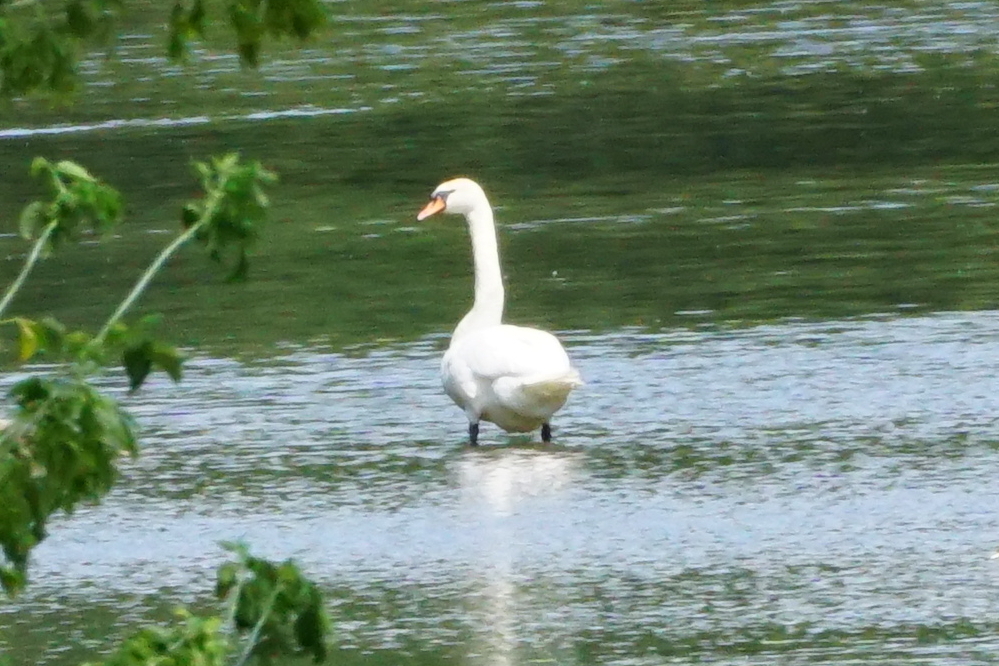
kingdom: Animalia
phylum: Chordata
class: Aves
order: Anseriformes
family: Anatidae
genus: Cygnus
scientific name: Cygnus olor
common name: Mute swan
